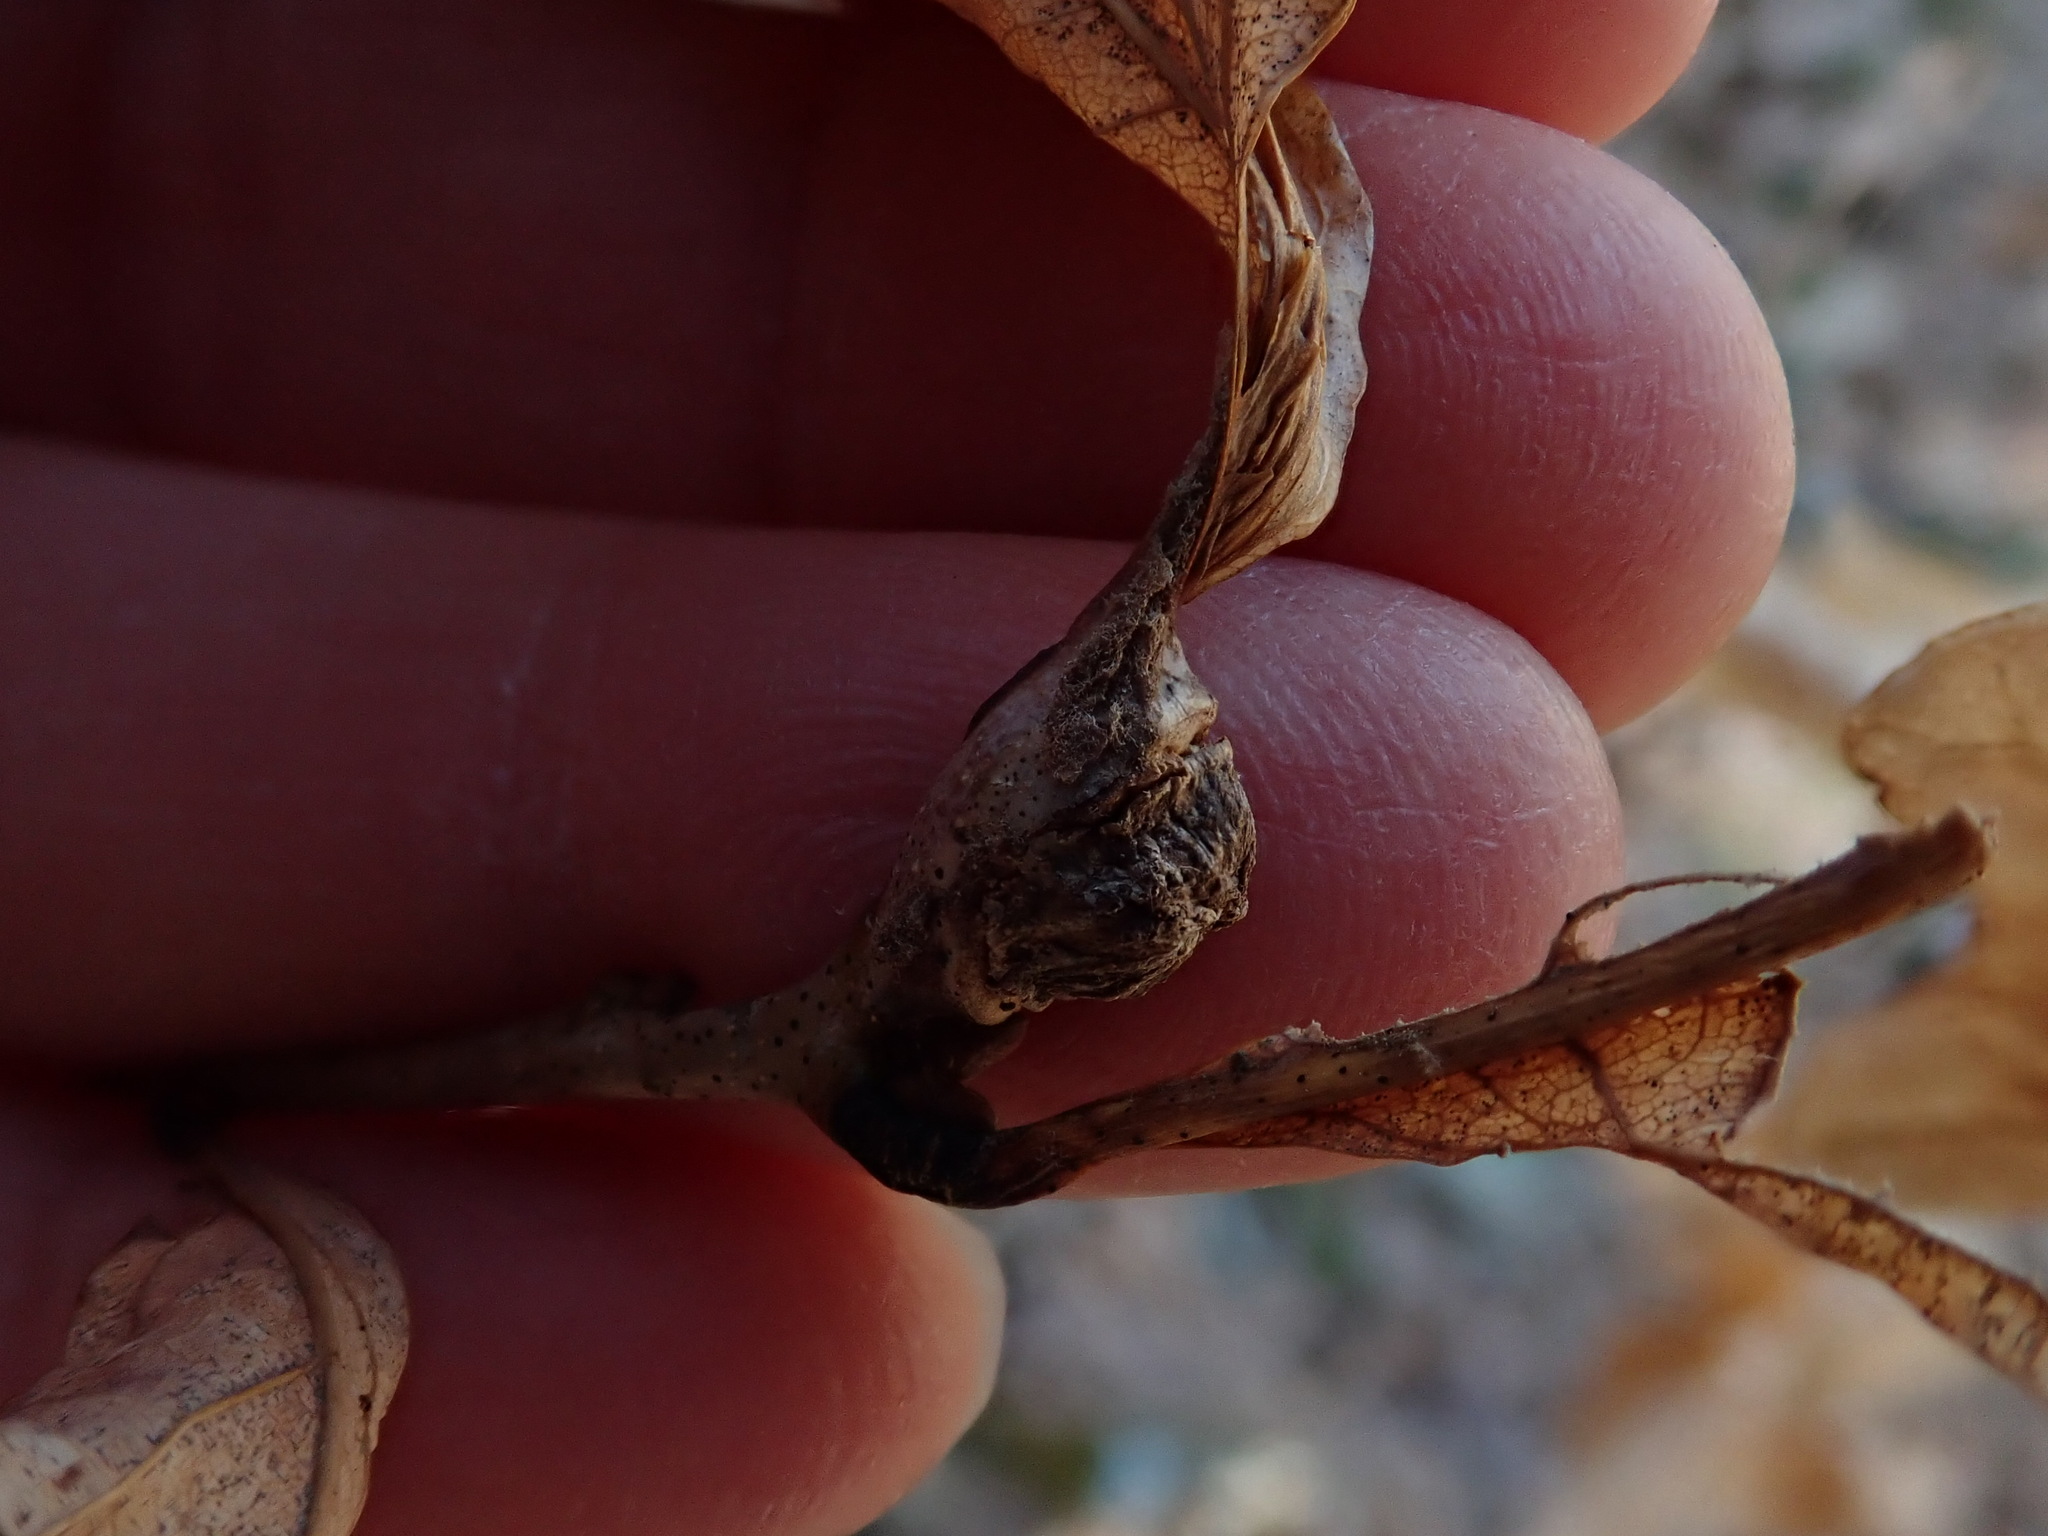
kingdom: Animalia
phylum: Arthropoda
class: Insecta
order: Hymenoptera
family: Cynipidae
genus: Andricus
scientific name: Andricus
